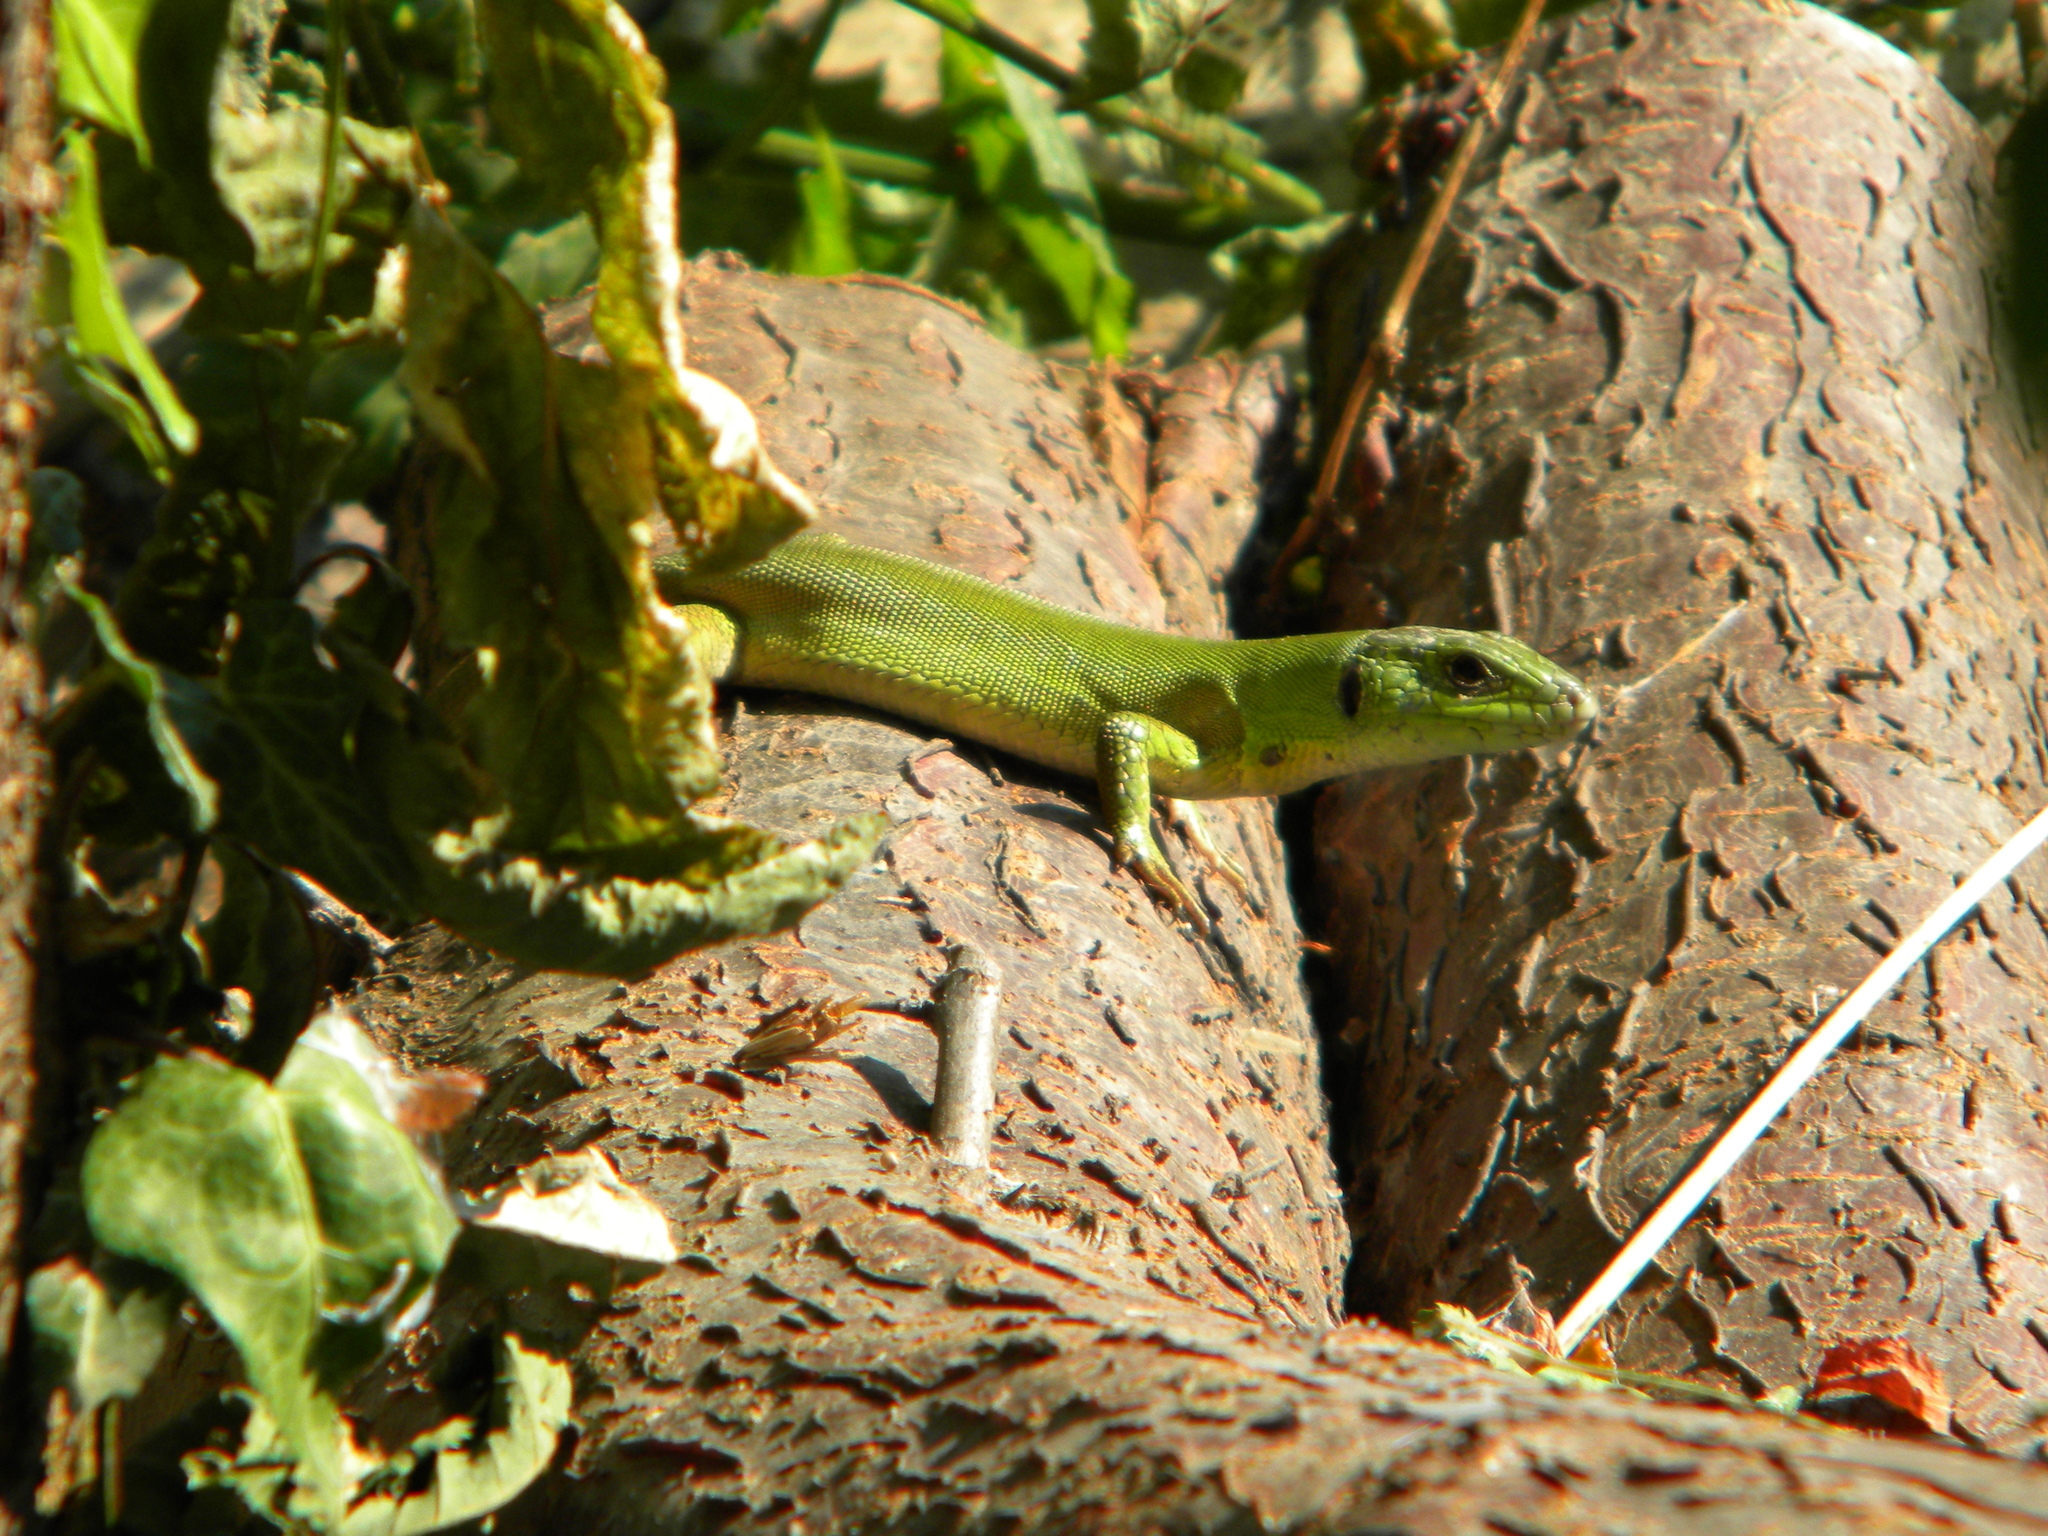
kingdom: Animalia
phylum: Chordata
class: Squamata
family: Lacertidae
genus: Lacerta
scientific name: Lacerta trilineata
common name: Balkan green lizard
